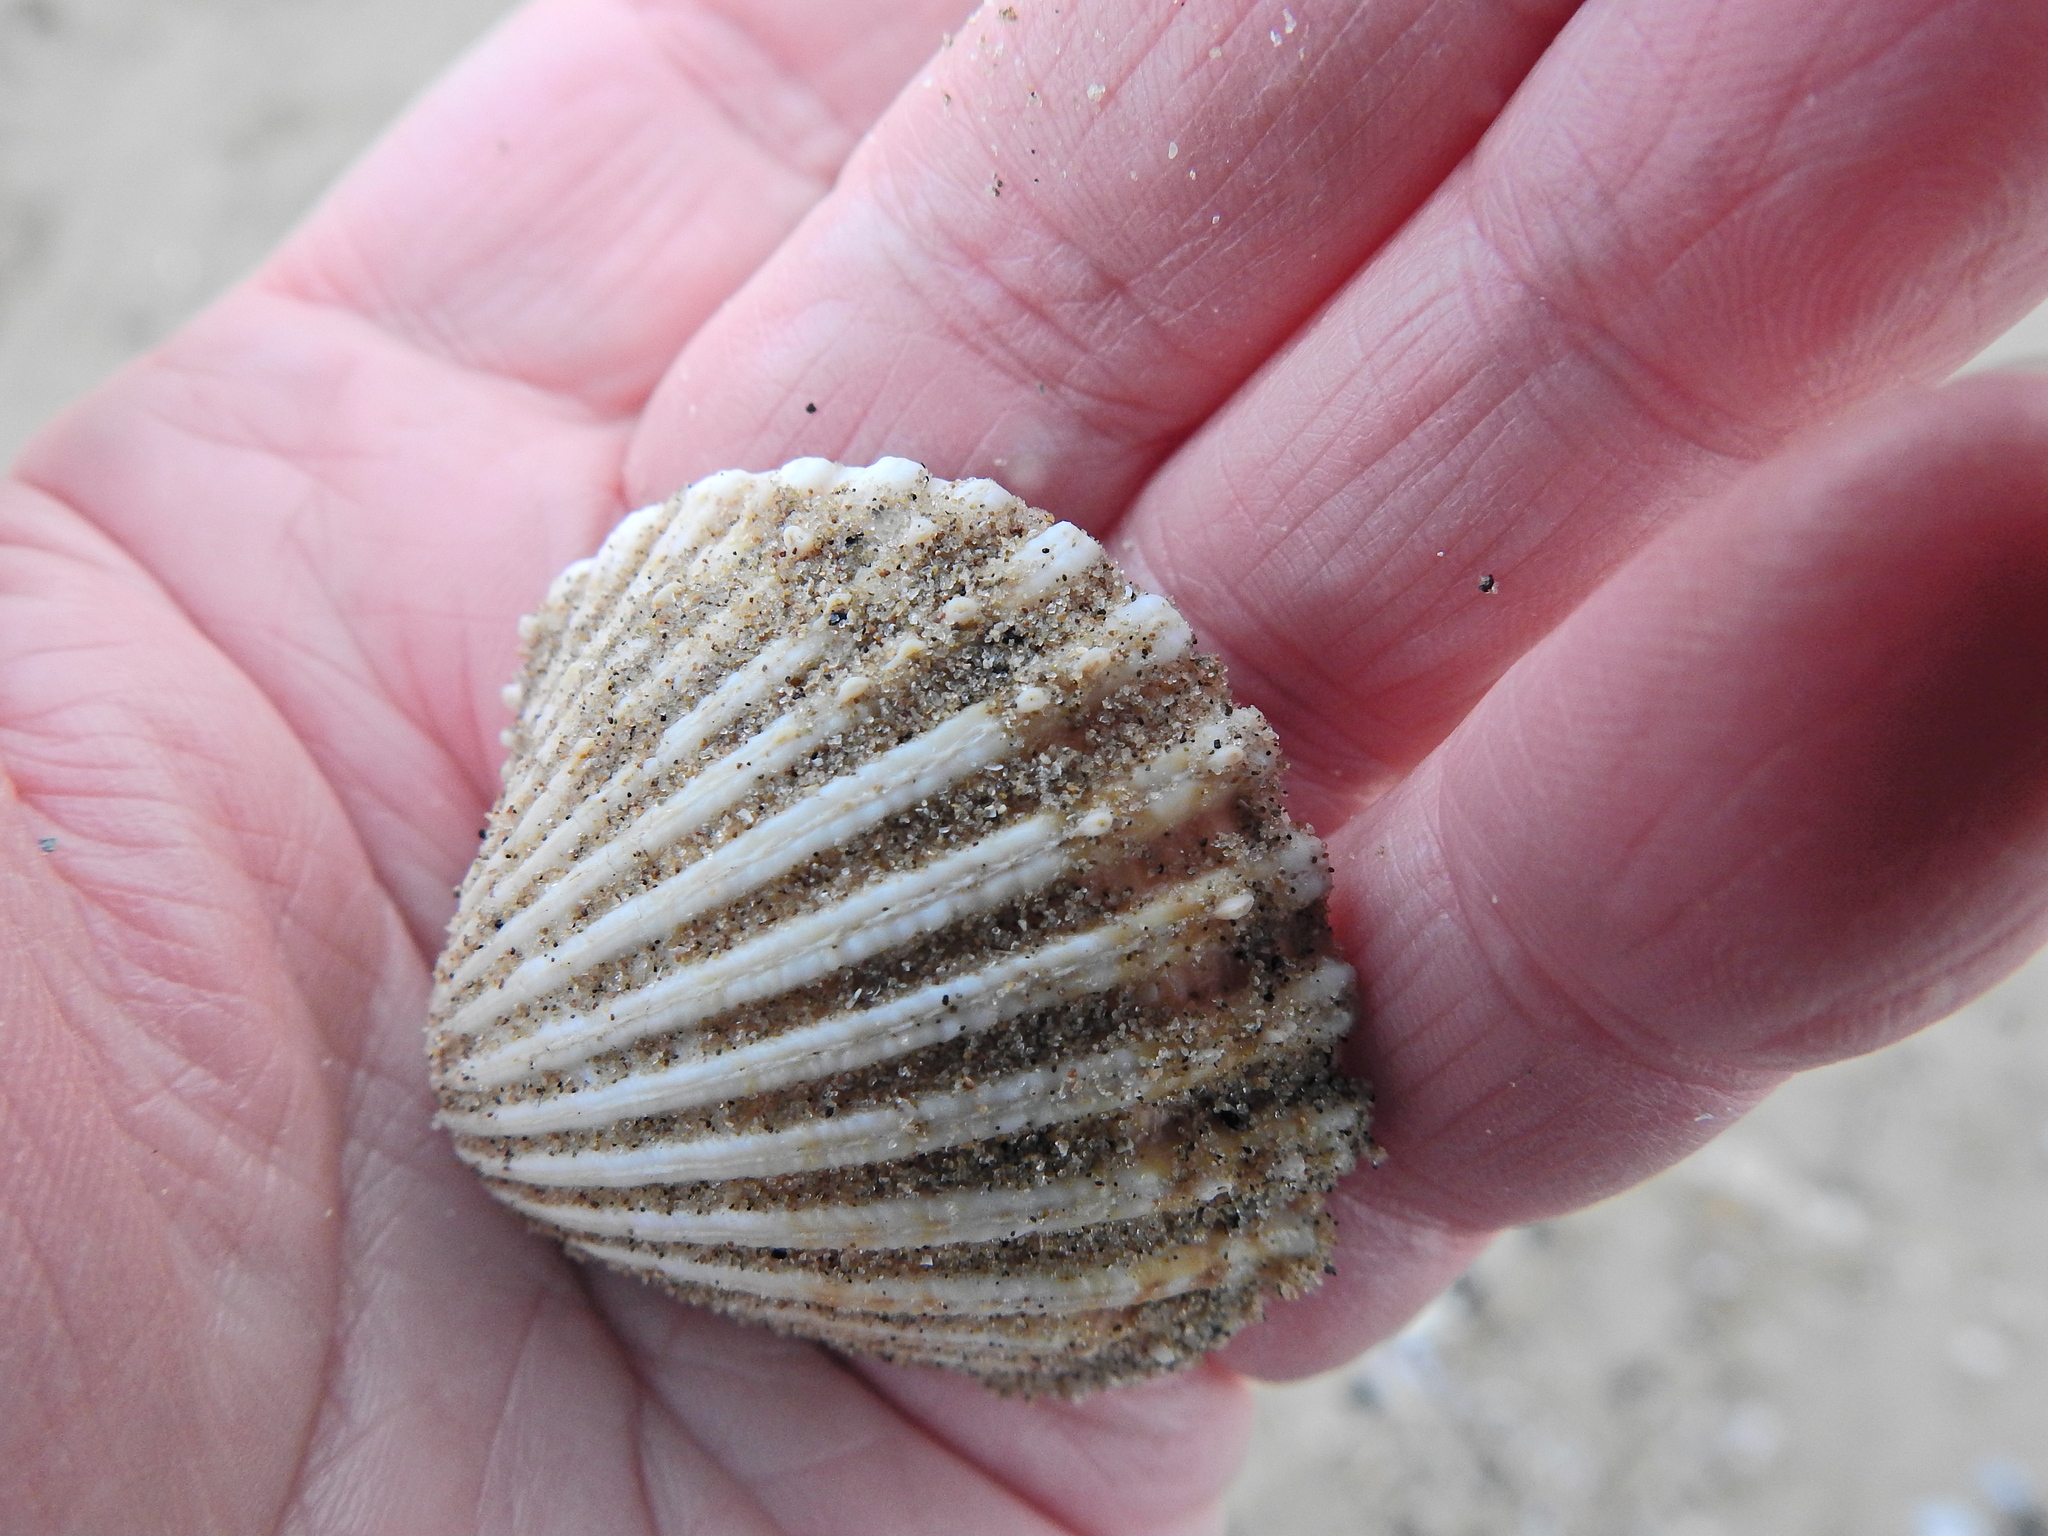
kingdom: Animalia
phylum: Mollusca
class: Bivalvia
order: Cardiida
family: Cardiidae
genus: Acanthocardia
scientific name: Acanthocardia echinata
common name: Prickly cockle
